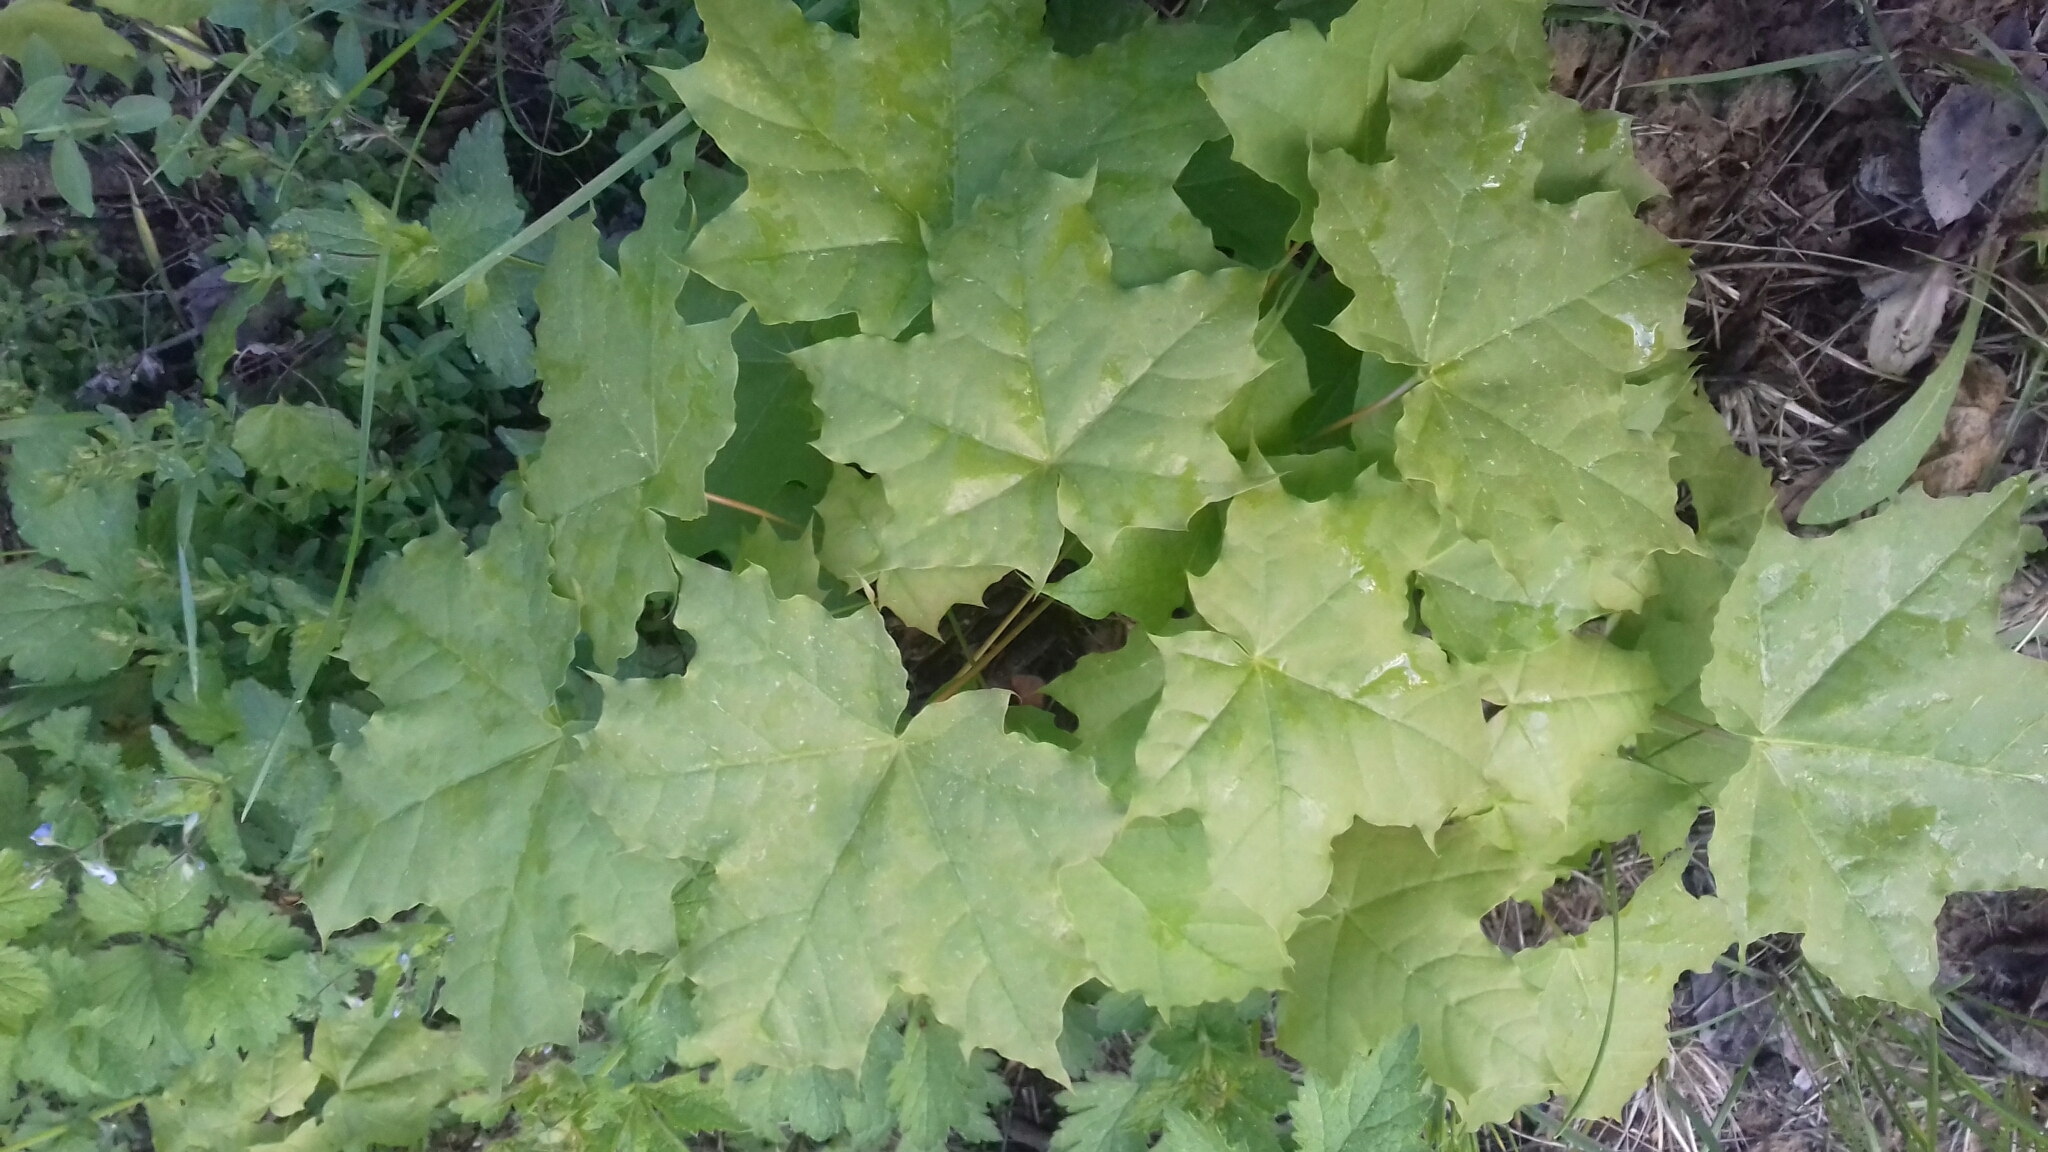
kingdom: Plantae
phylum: Tracheophyta
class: Magnoliopsida
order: Sapindales
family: Sapindaceae
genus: Acer
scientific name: Acer platanoides
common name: Norway maple
